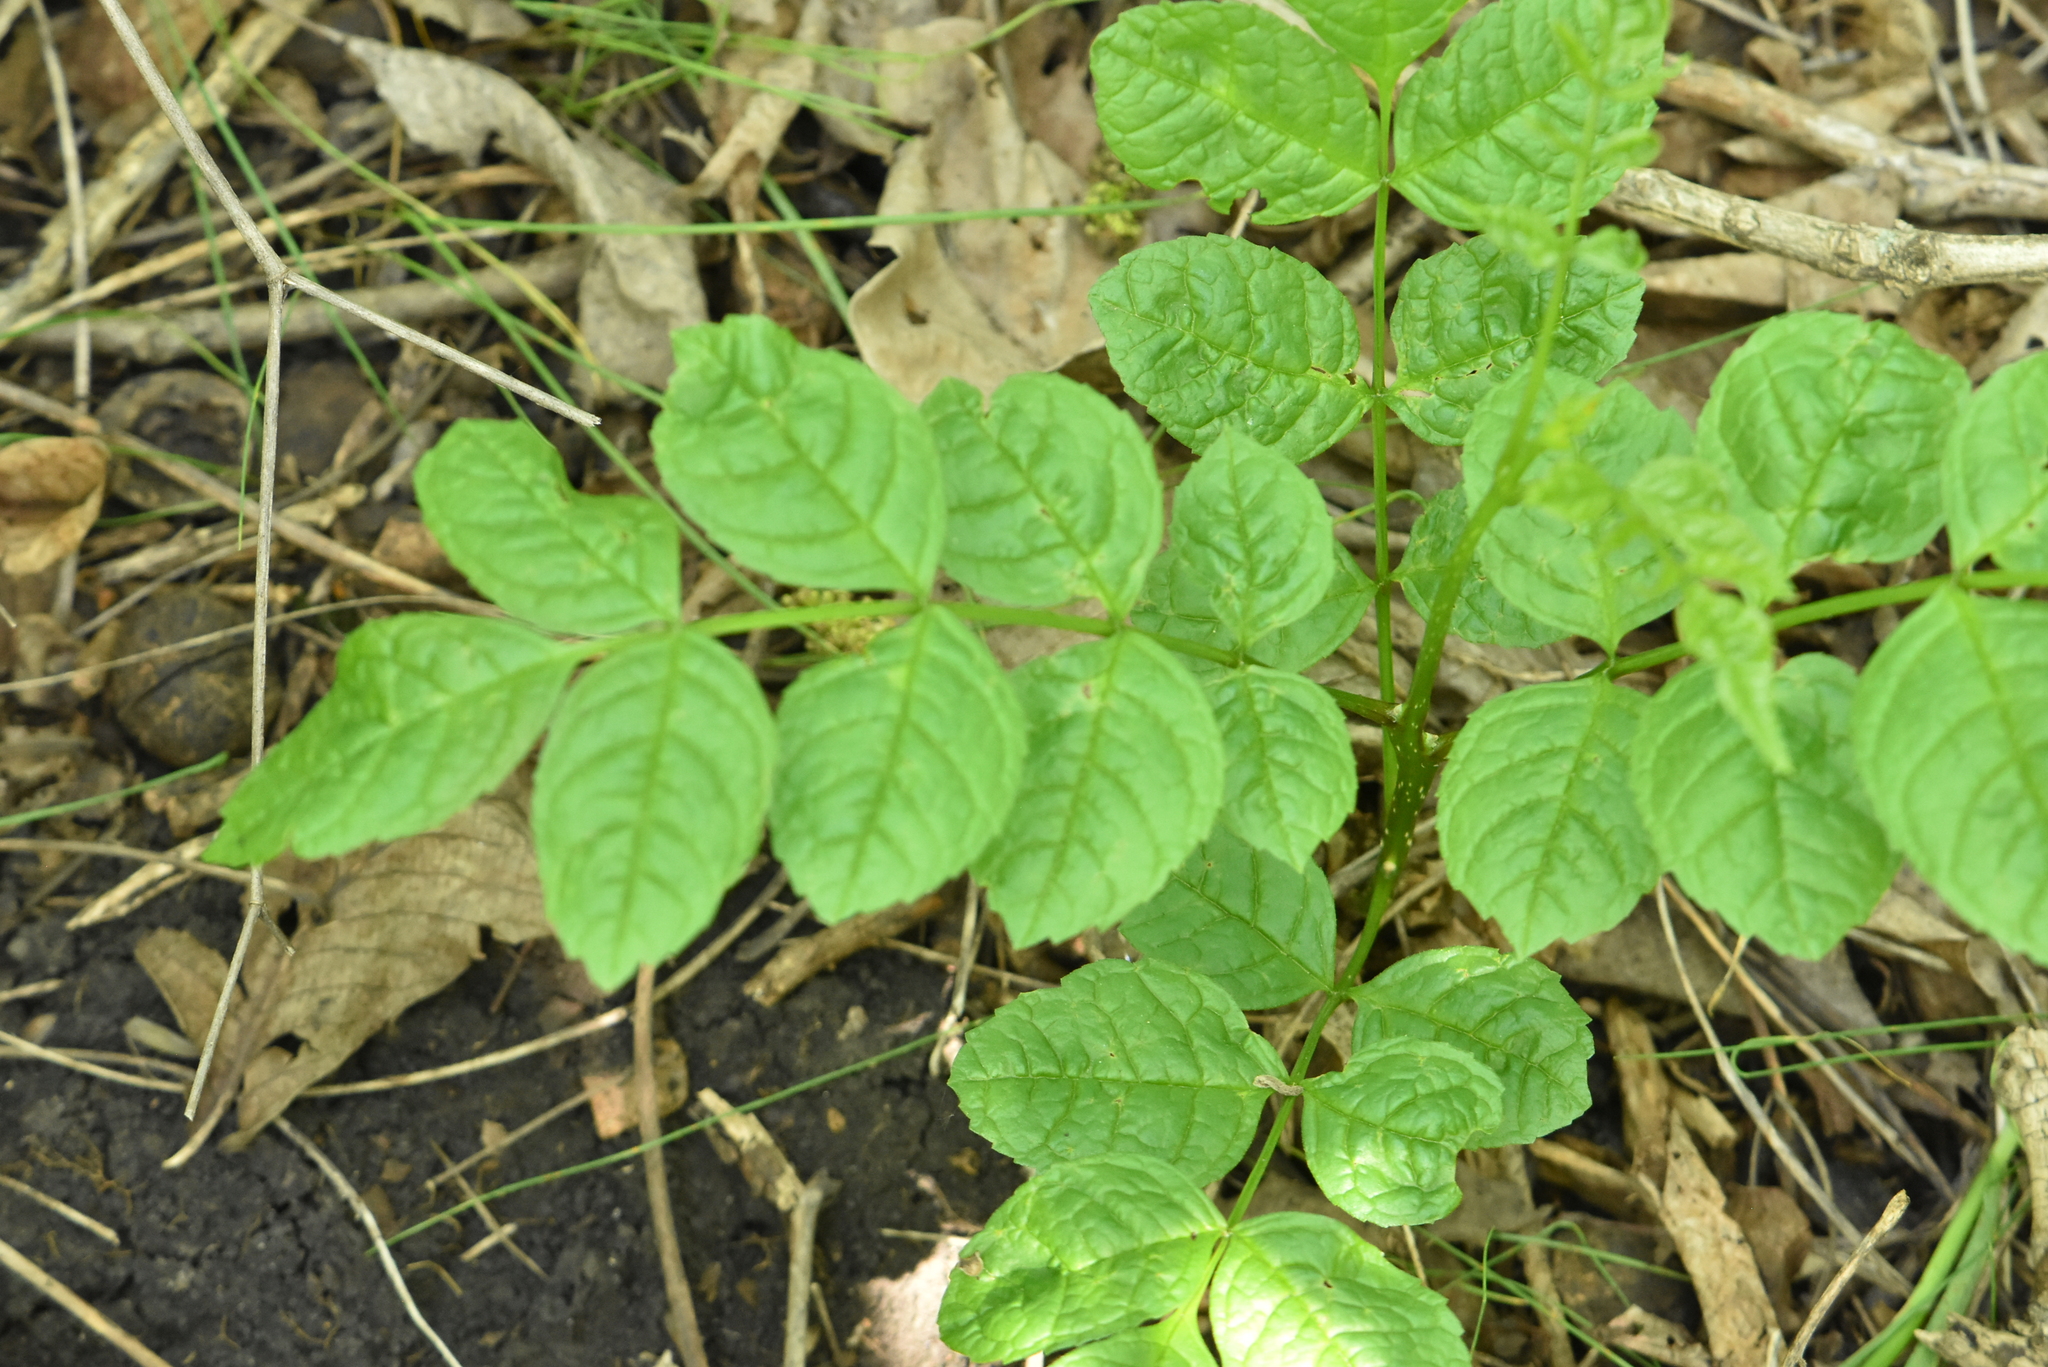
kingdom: Plantae
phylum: Tracheophyta
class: Magnoliopsida
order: Lamiales
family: Oleaceae
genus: Fraxinus
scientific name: Fraxinus excelsior
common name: European ash
